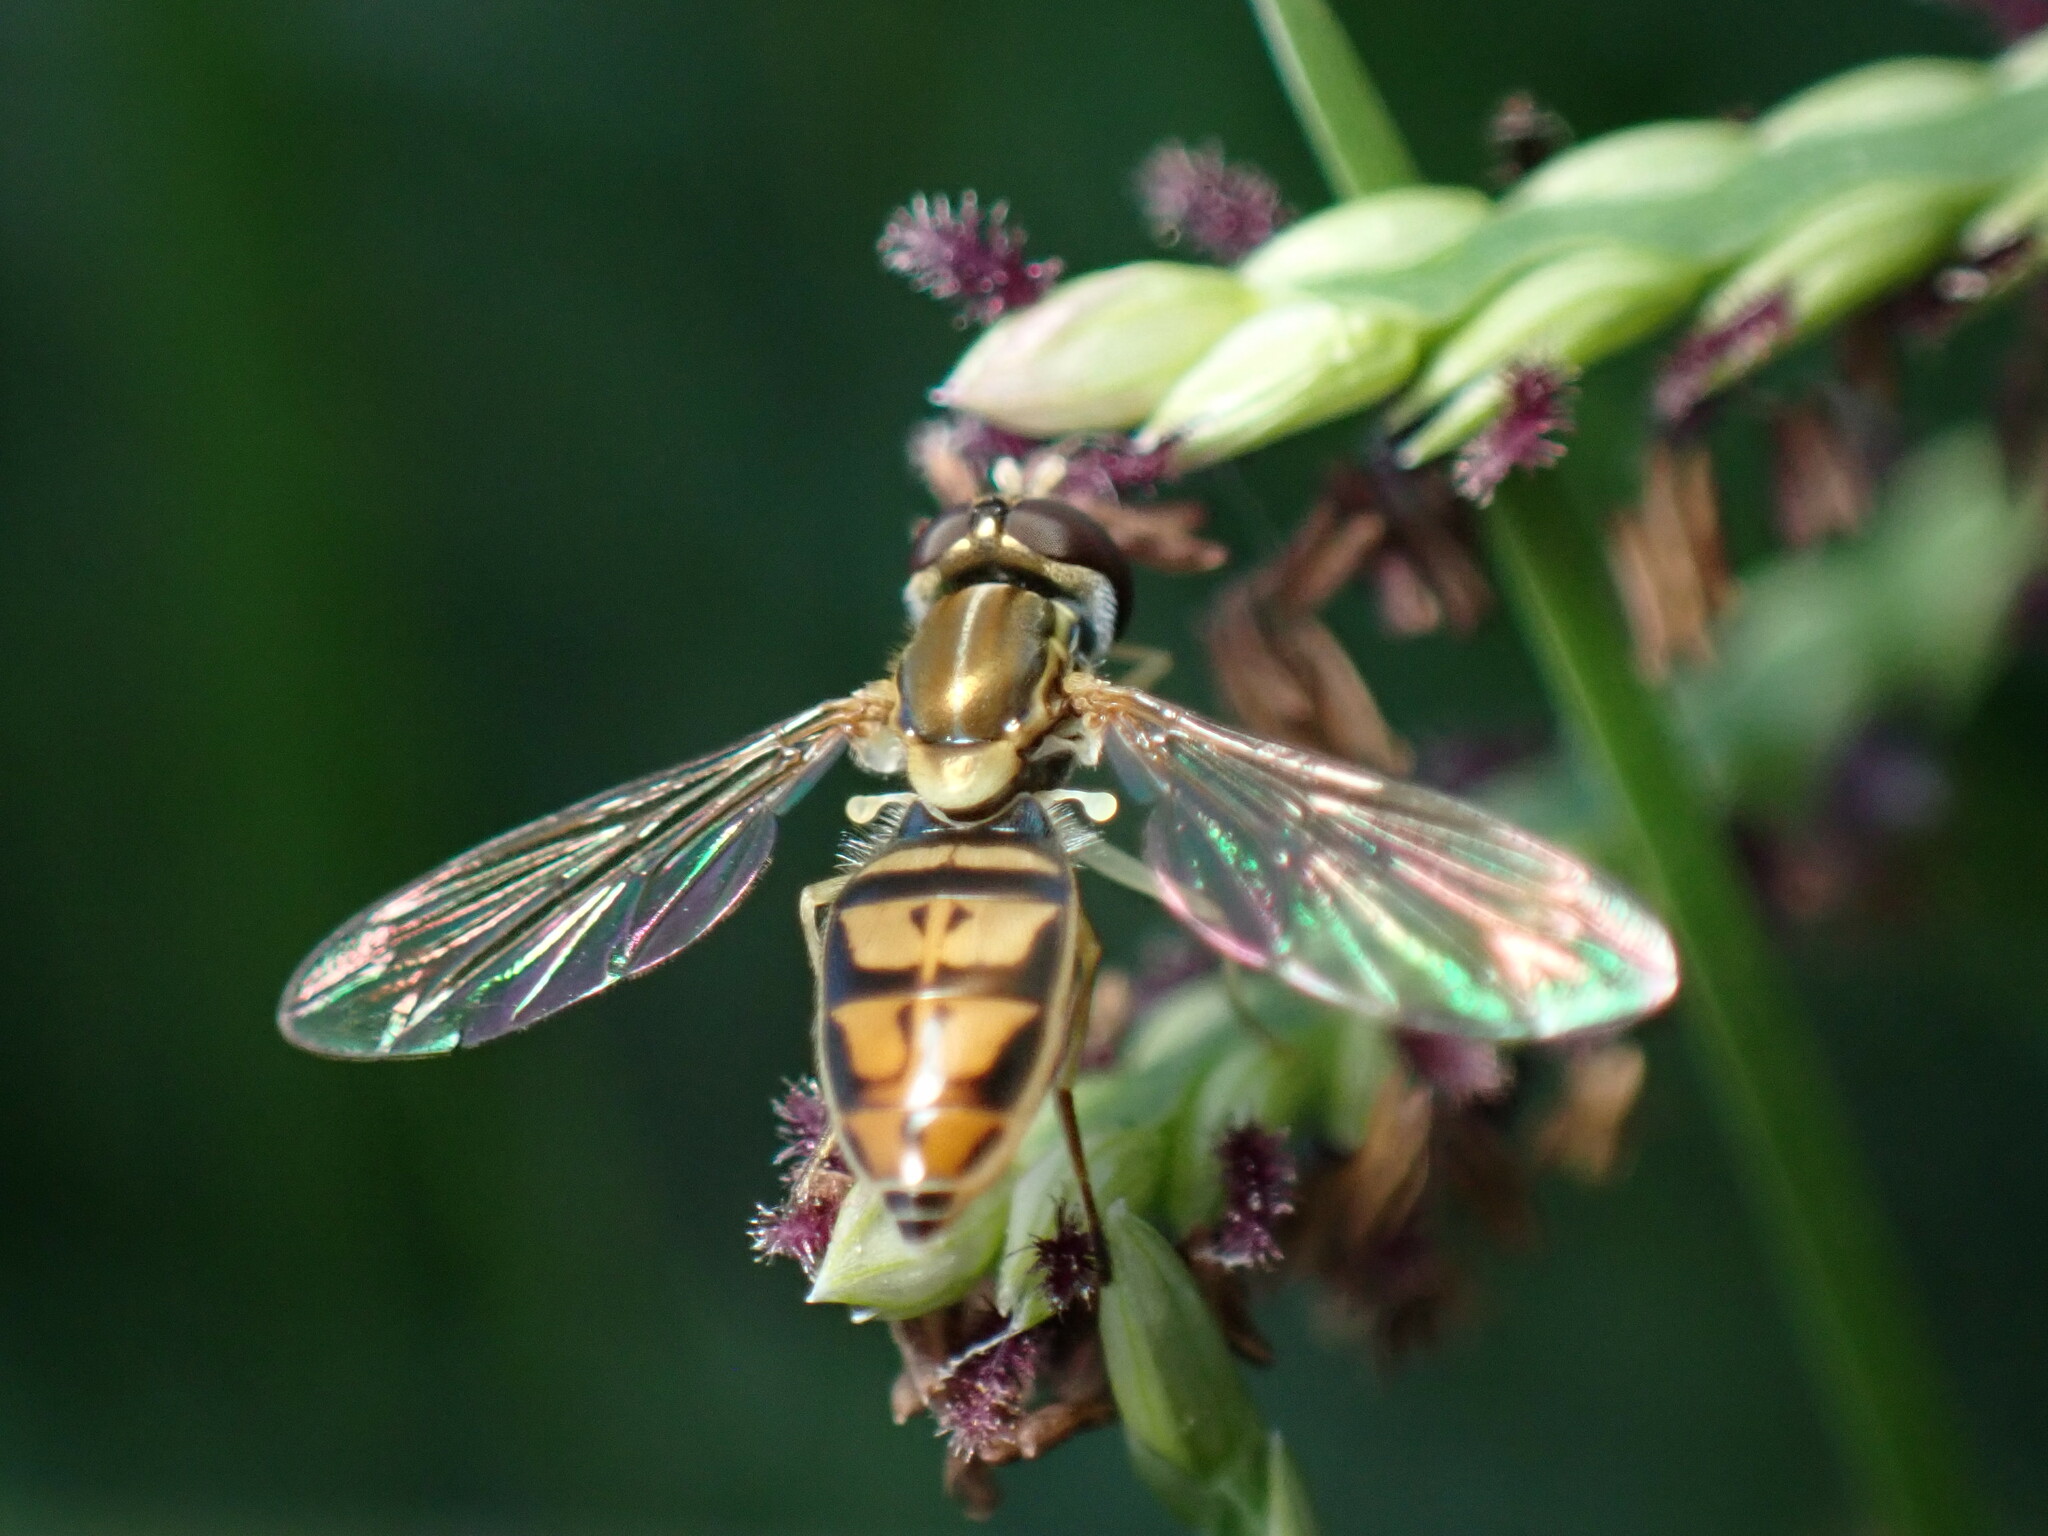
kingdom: Animalia
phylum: Arthropoda
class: Insecta
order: Diptera
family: Syrphidae
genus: Toxomerus
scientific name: Toxomerus marginatus
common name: Syrphid fly
